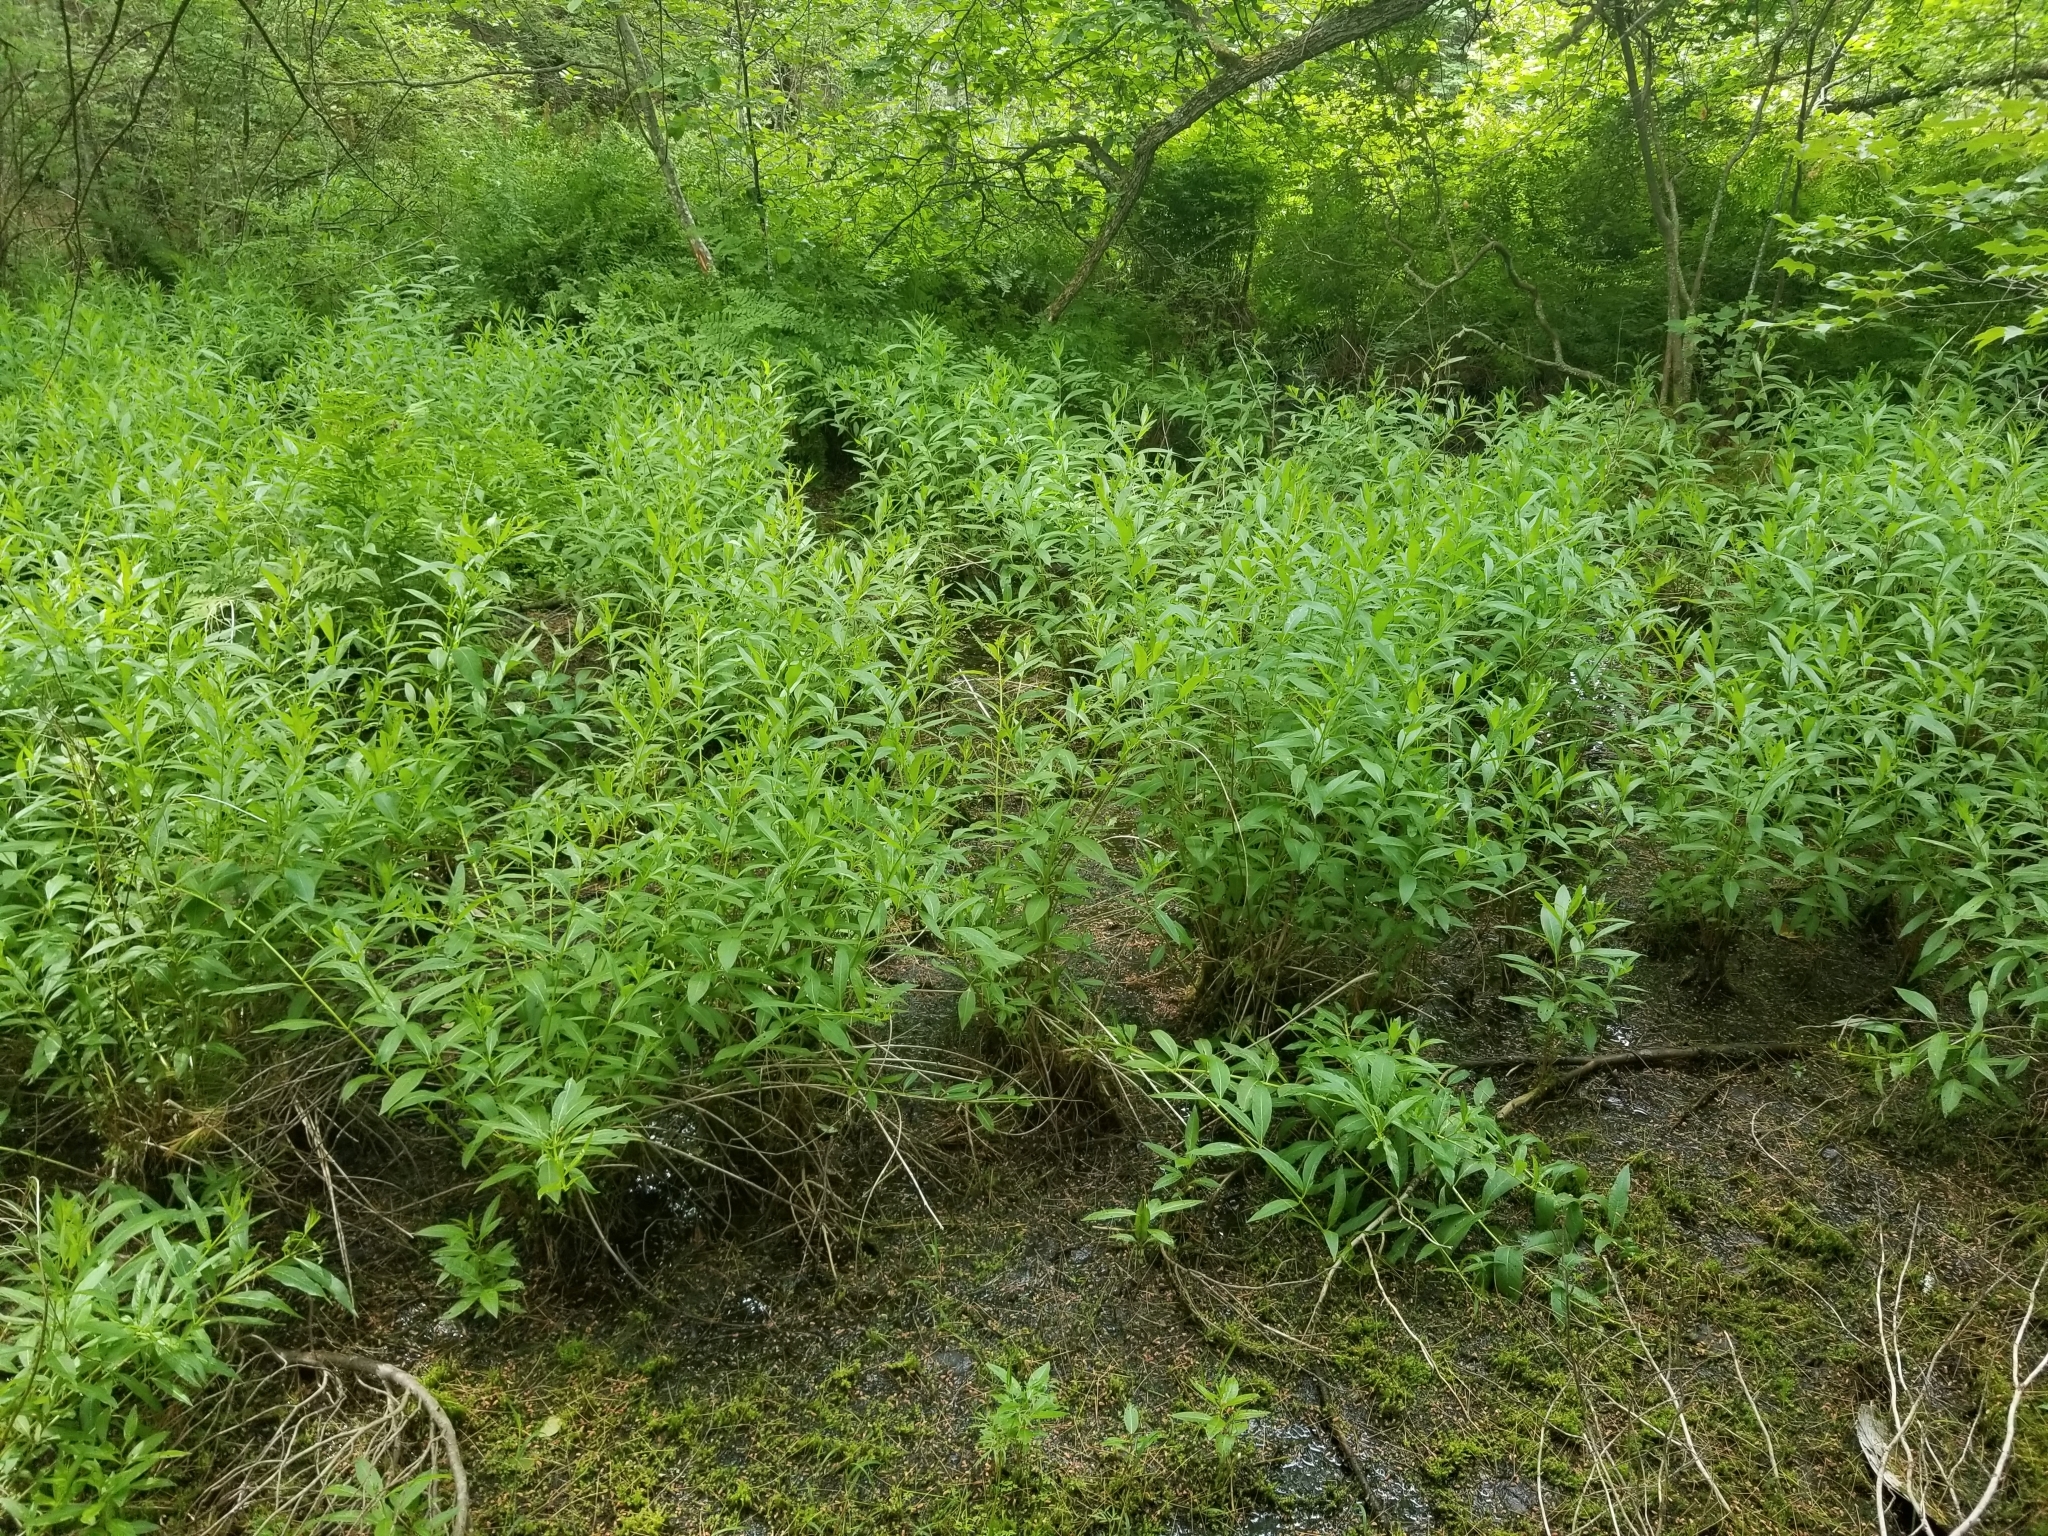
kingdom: Plantae
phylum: Tracheophyta
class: Magnoliopsida
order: Myrtales
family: Lythraceae
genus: Decodon
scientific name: Decodon verticillatus
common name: Hairy swamp loosestrife
